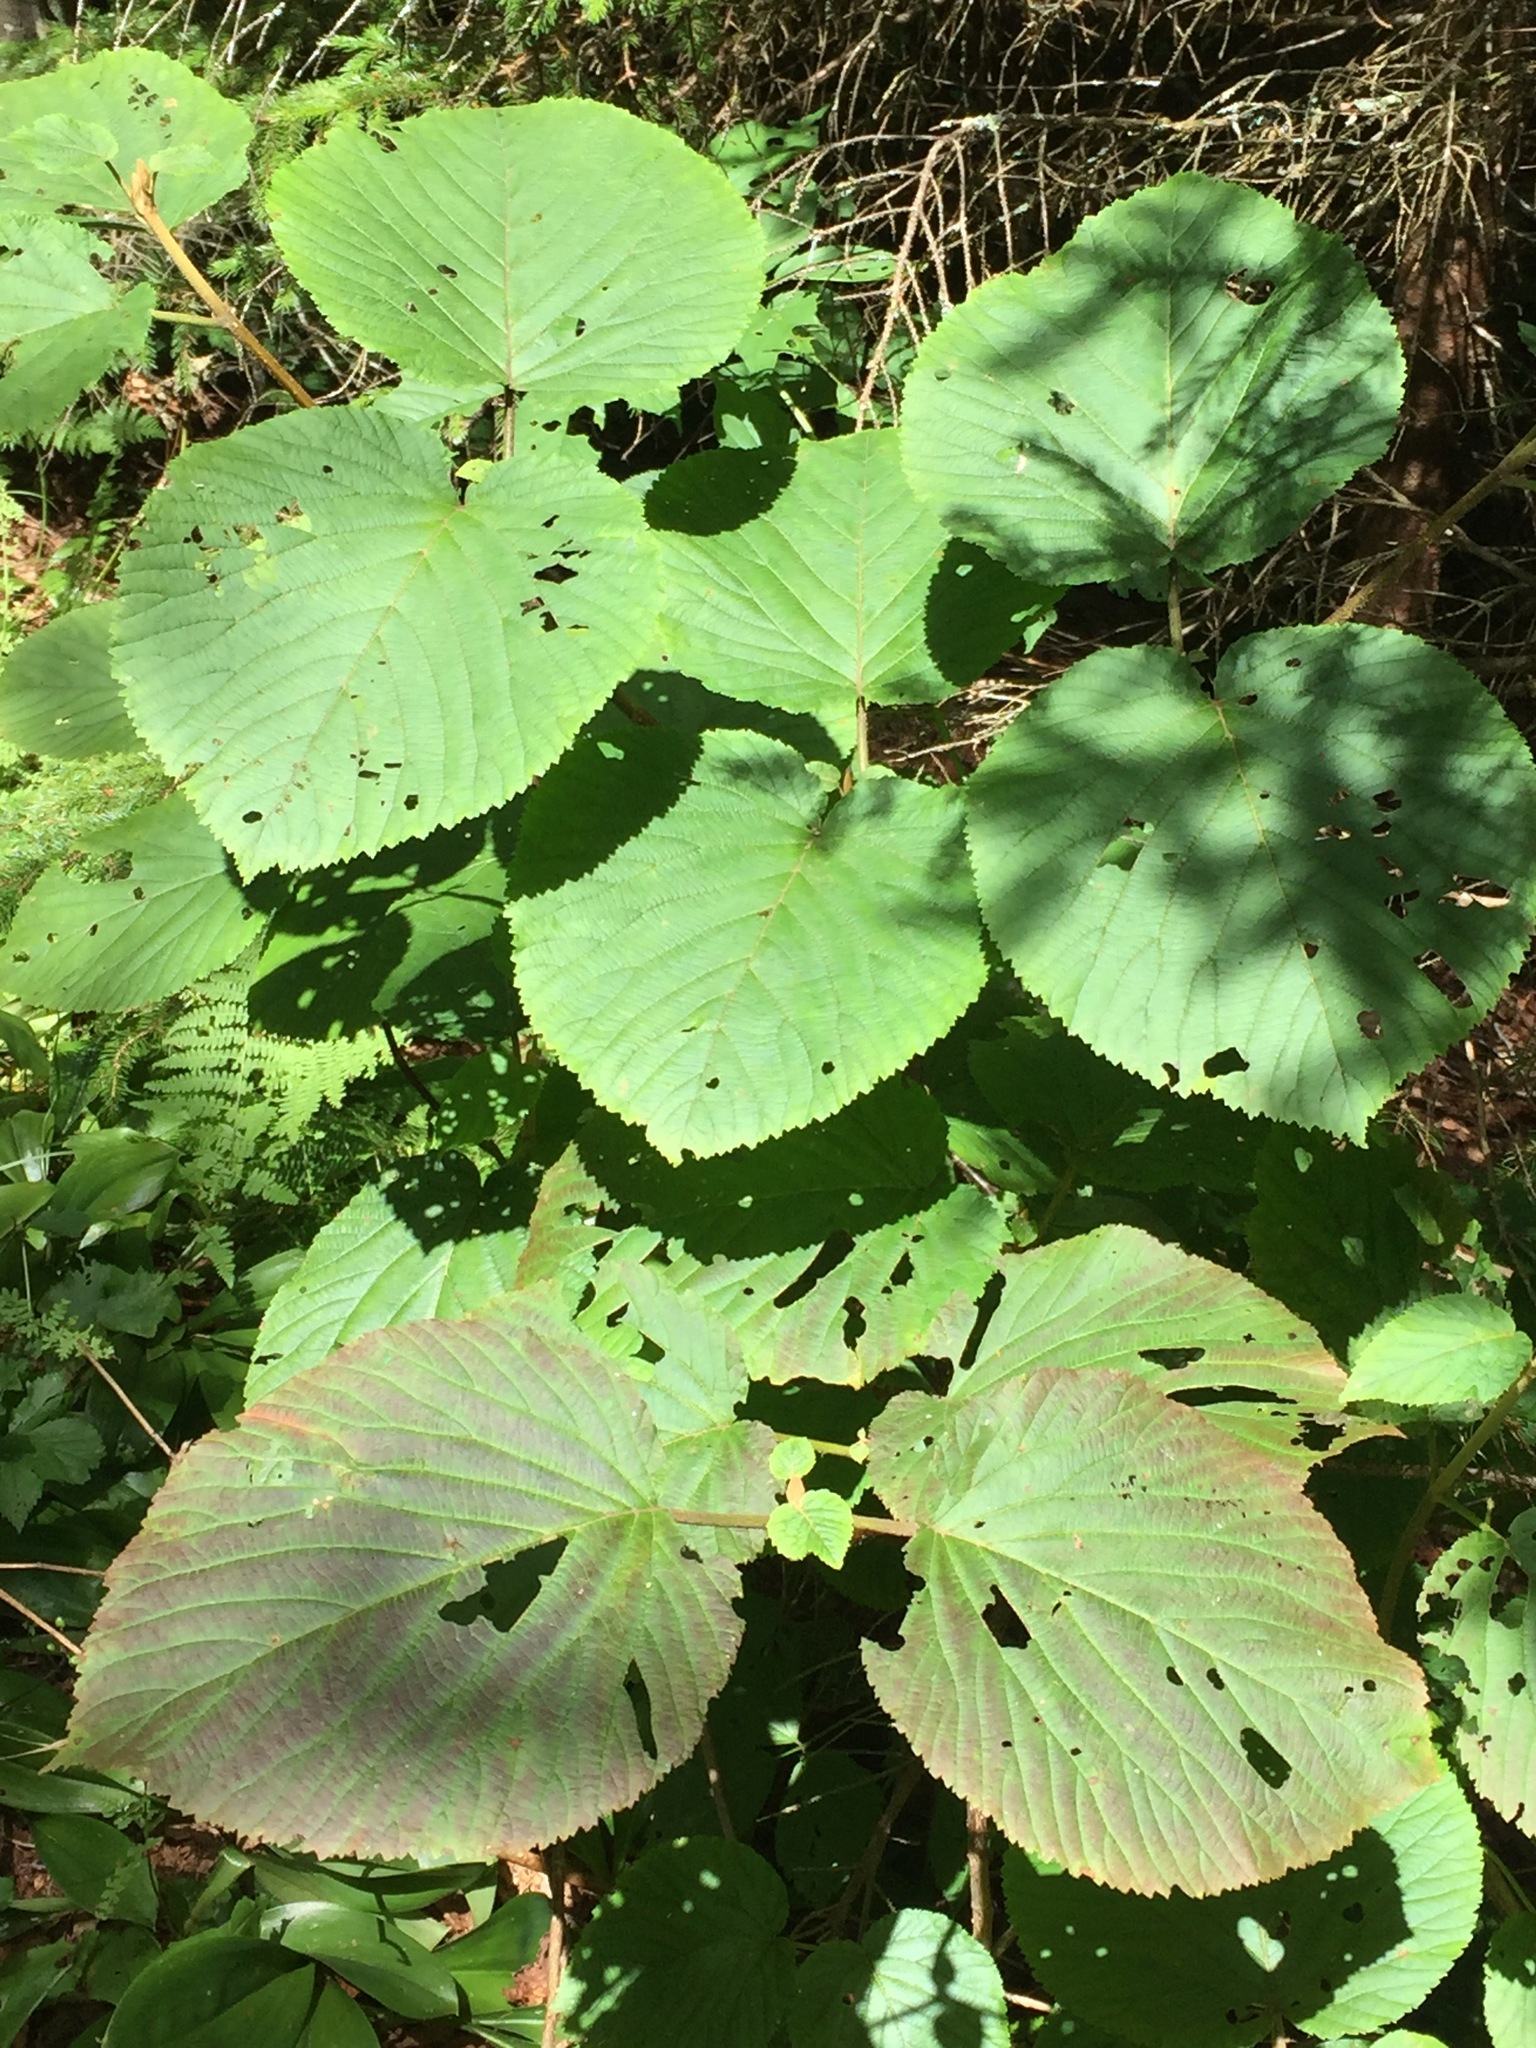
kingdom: Plantae
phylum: Tracheophyta
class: Magnoliopsida
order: Dipsacales
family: Viburnaceae
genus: Viburnum
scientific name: Viburnum lantanoides
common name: Hobblebush
